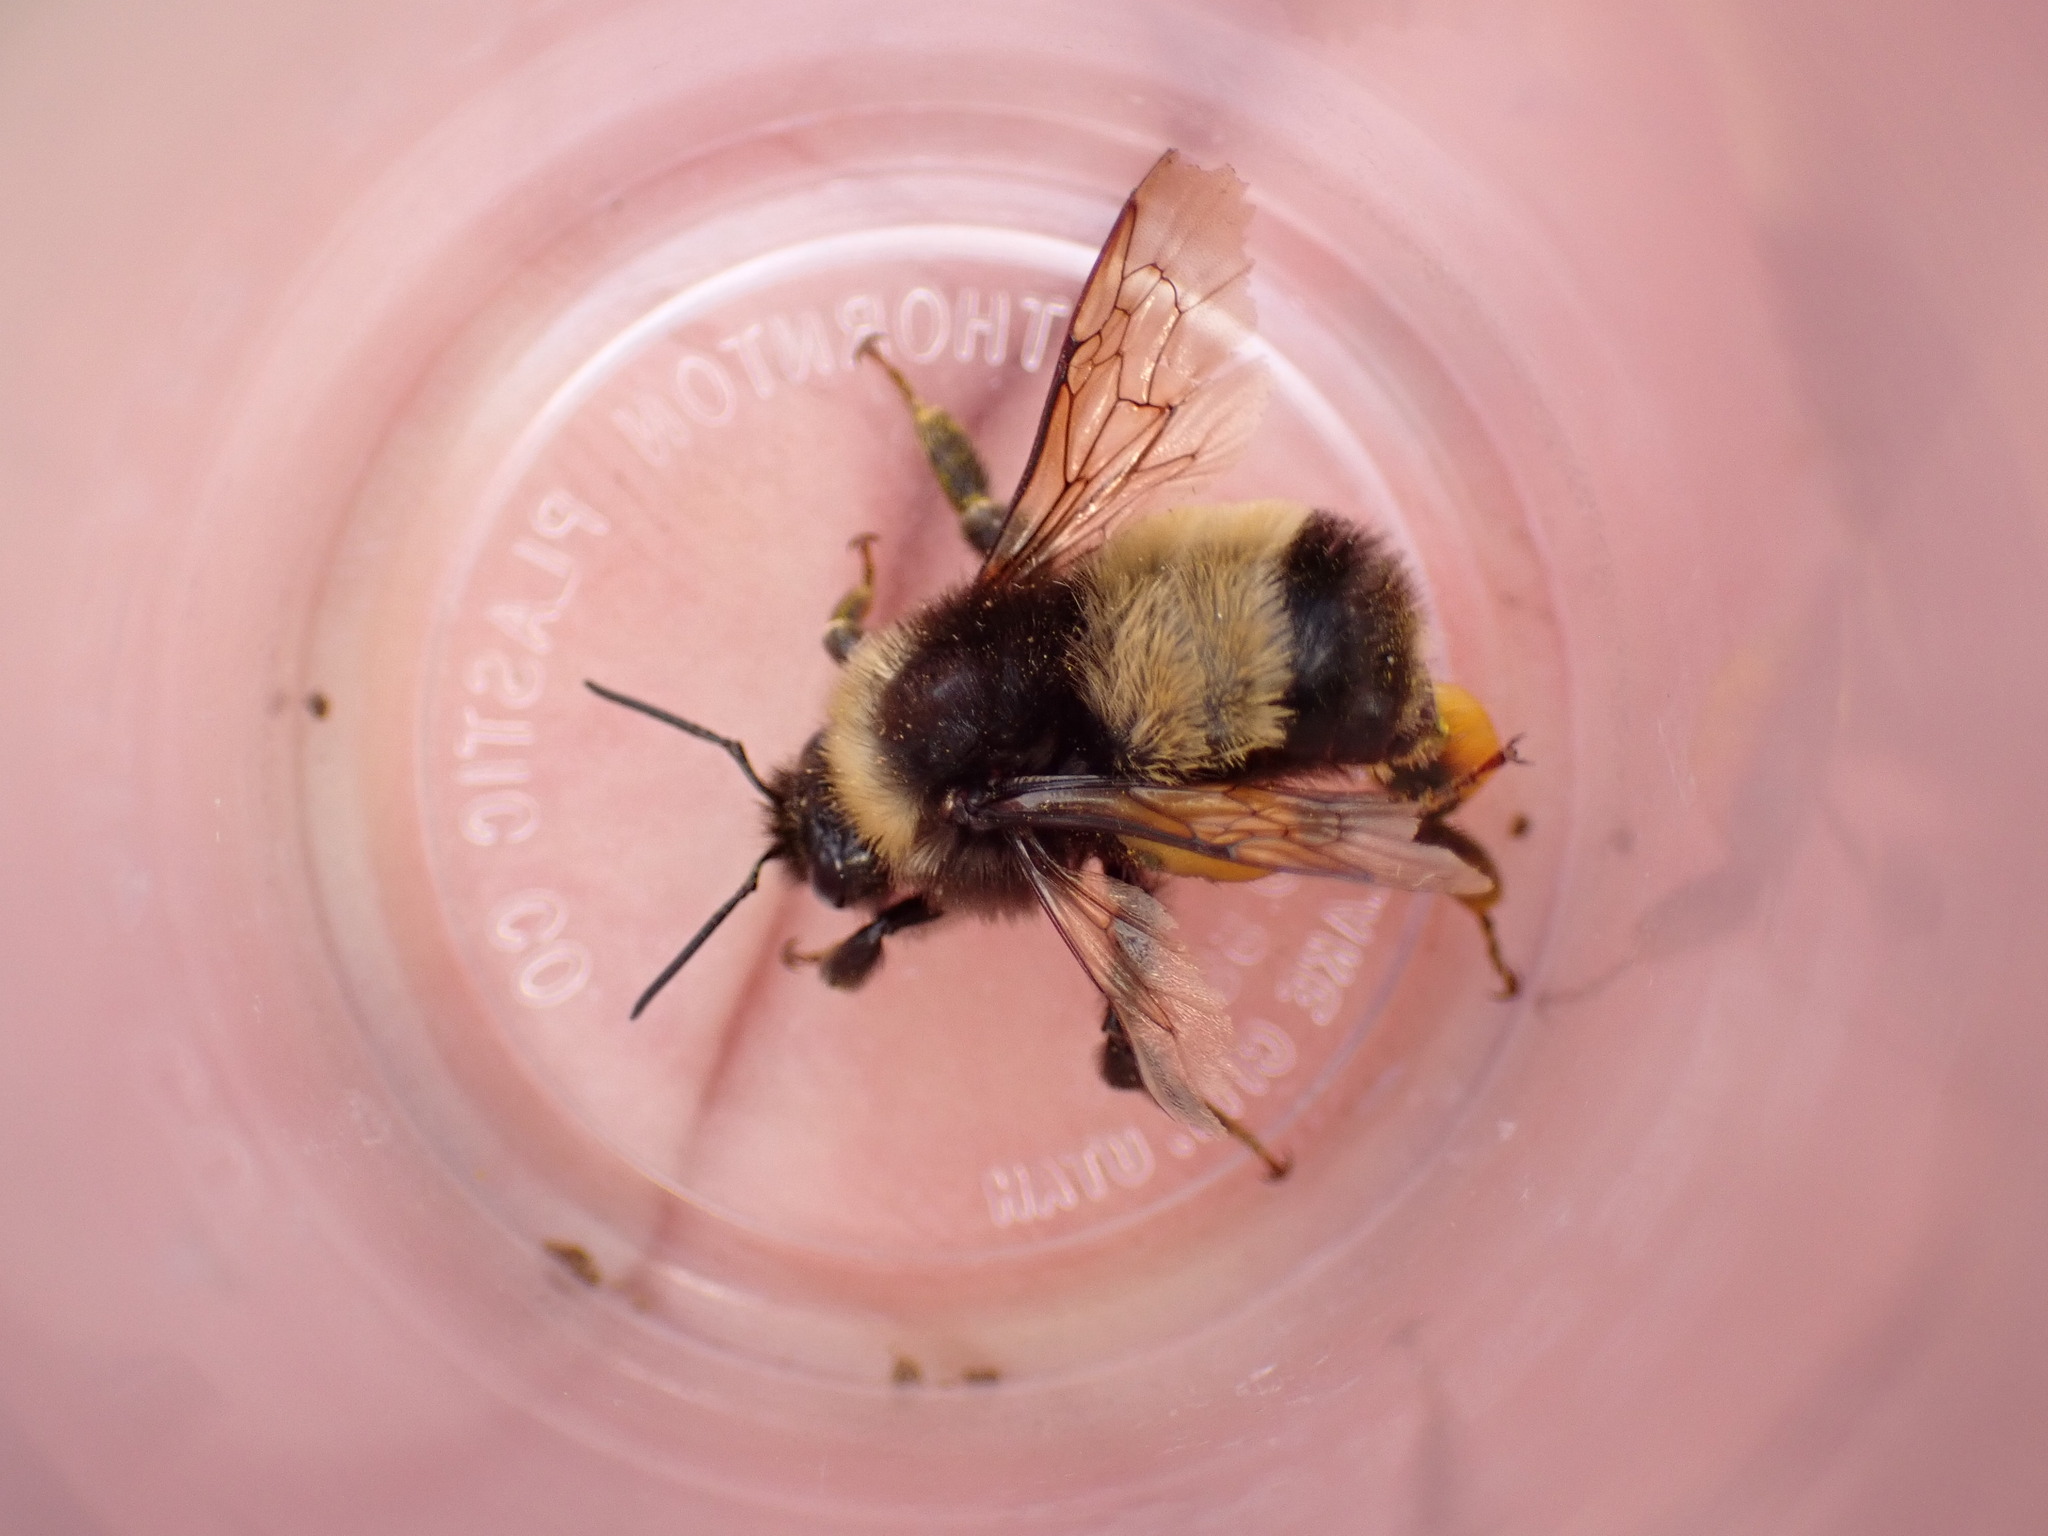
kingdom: Animalia
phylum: Arthropoda
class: Insecta
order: Hymenoptera
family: Apidae
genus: Bombus
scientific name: Bombus terricola
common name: Yellow-banded bumble bee
